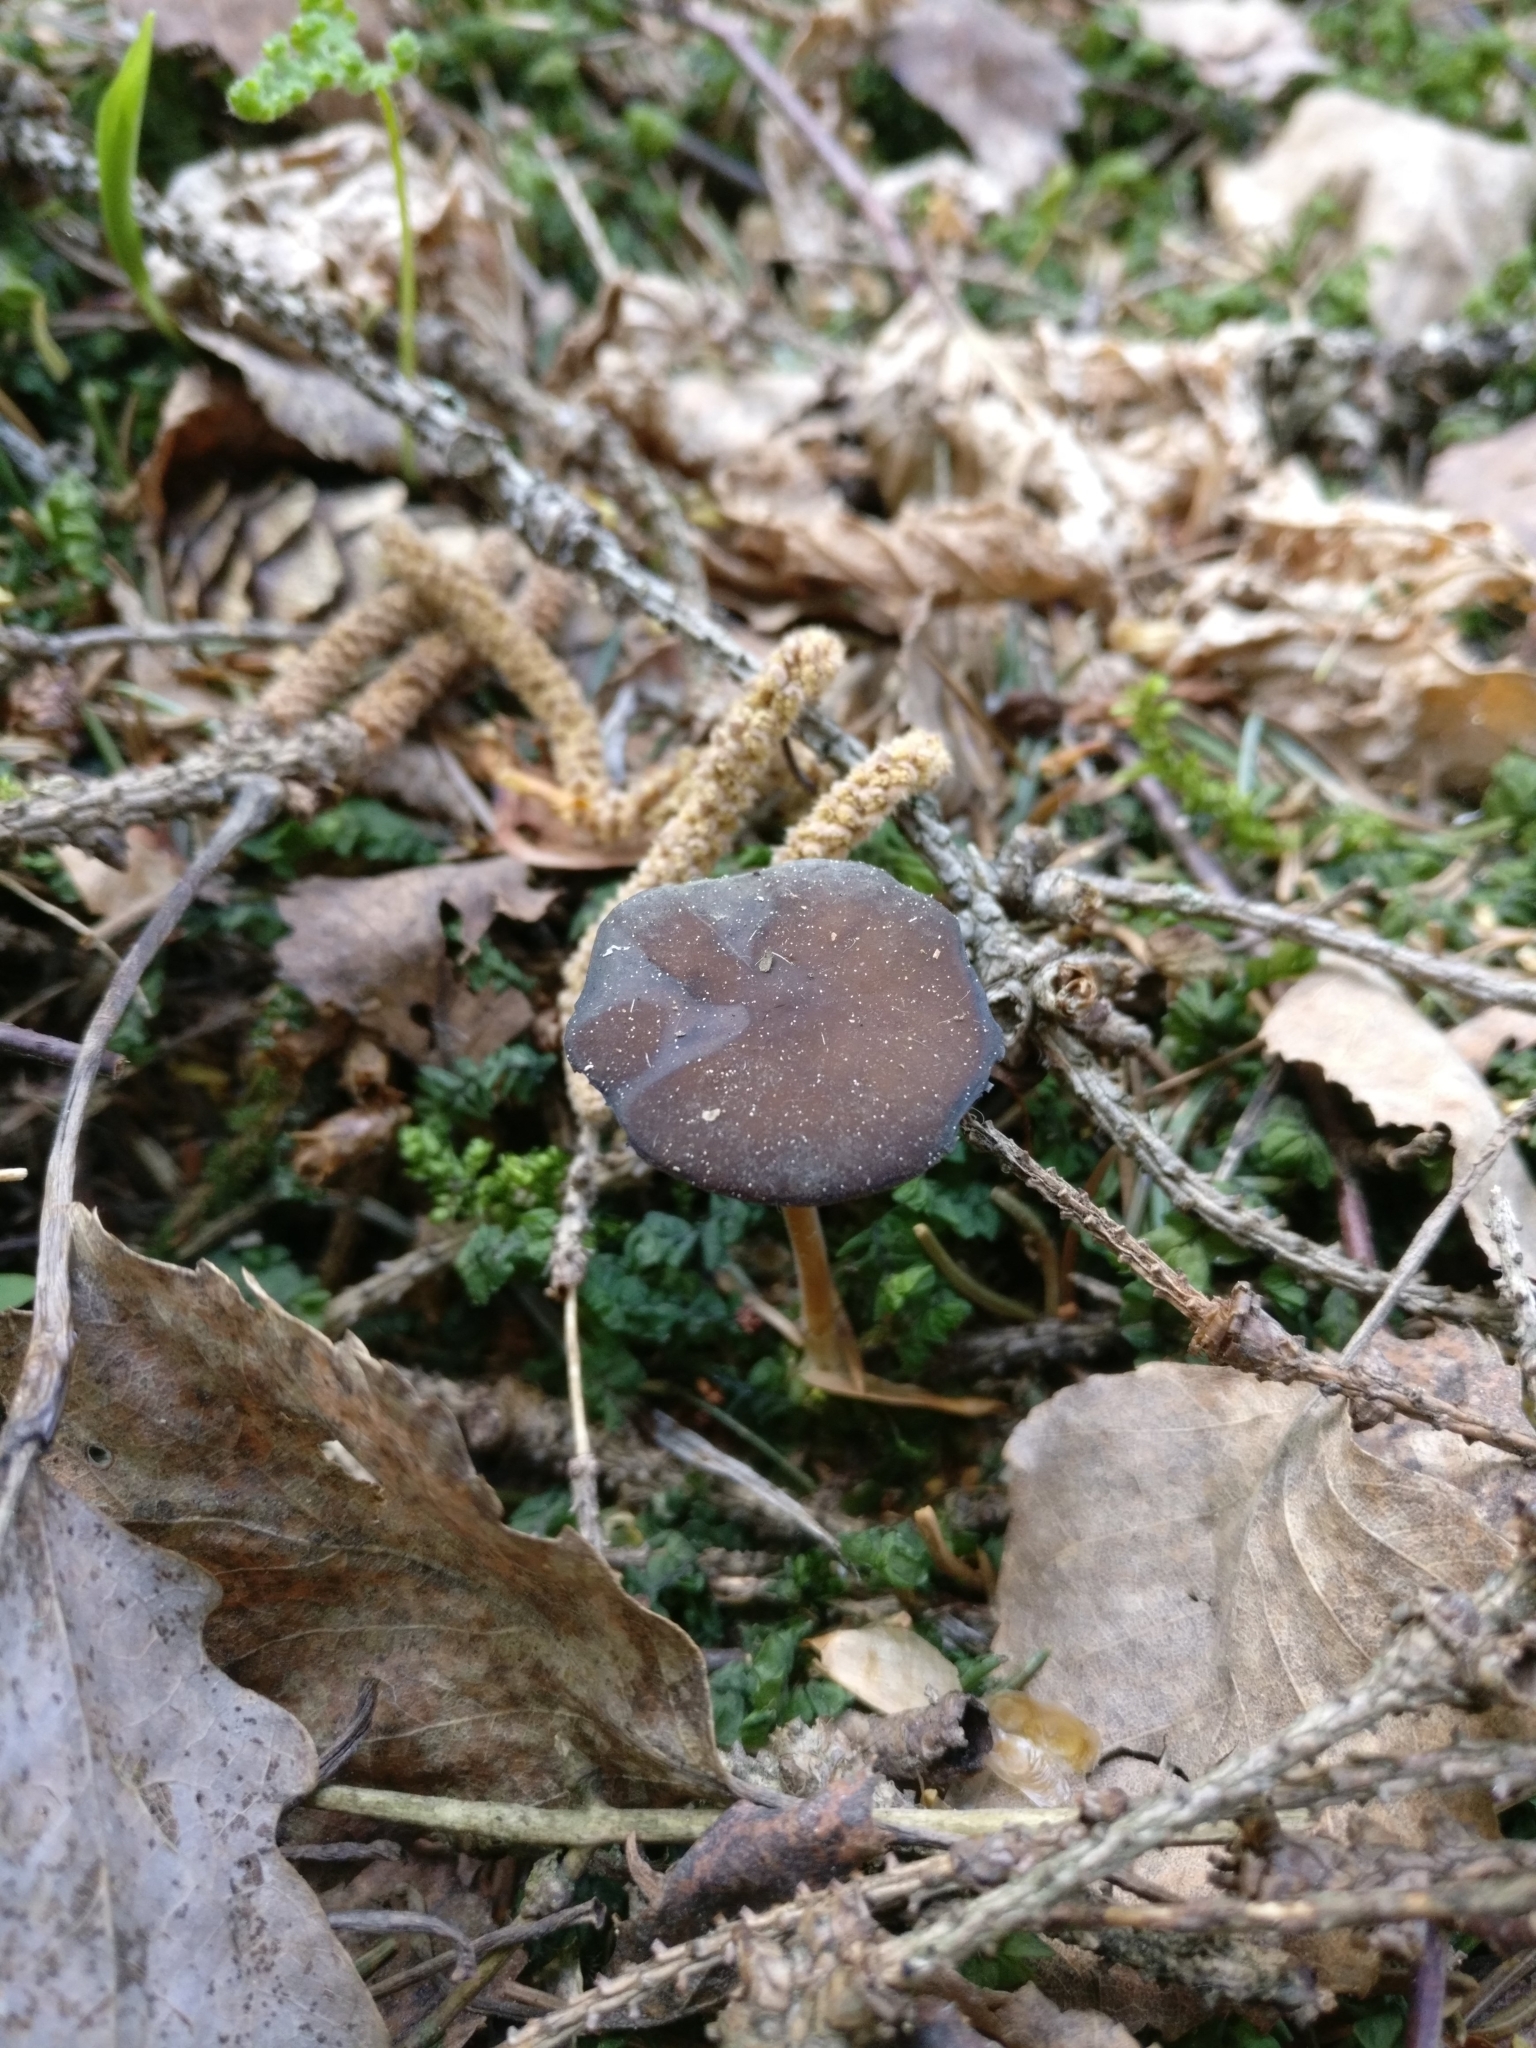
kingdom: Fungi
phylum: Basidiomycota
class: Agaricomycetes
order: Agaricales
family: Physalacriaceae
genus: Strobilurus
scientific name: Strobilurus esculentus
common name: Sprucecone cap
